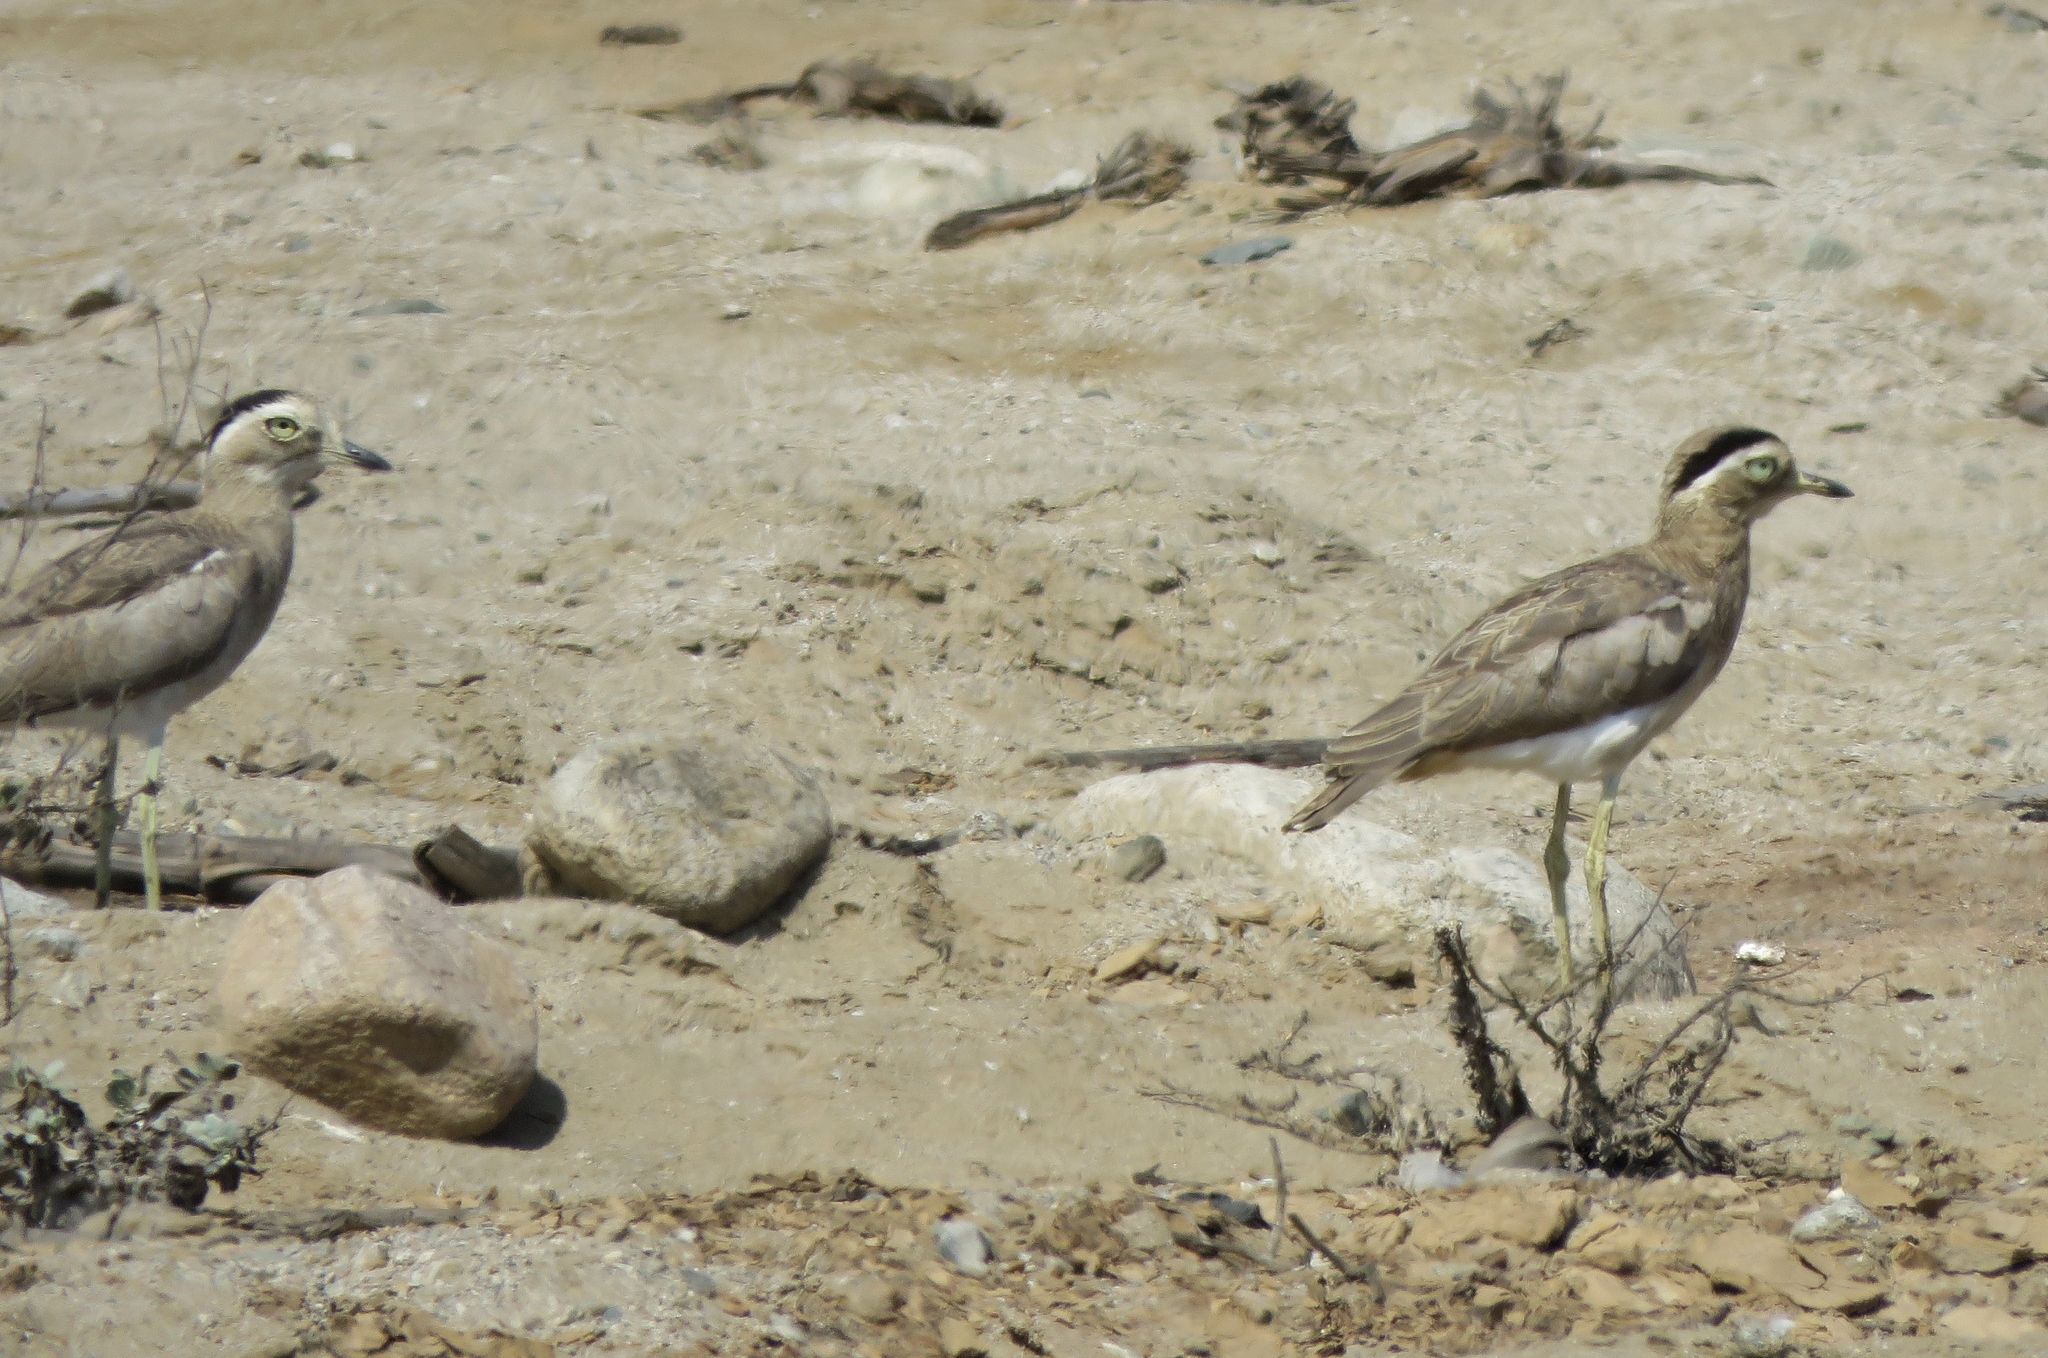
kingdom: Animalia
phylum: Chordata
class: Aves
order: Charadriiformes
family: Burhinidae
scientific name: Burhinidae
